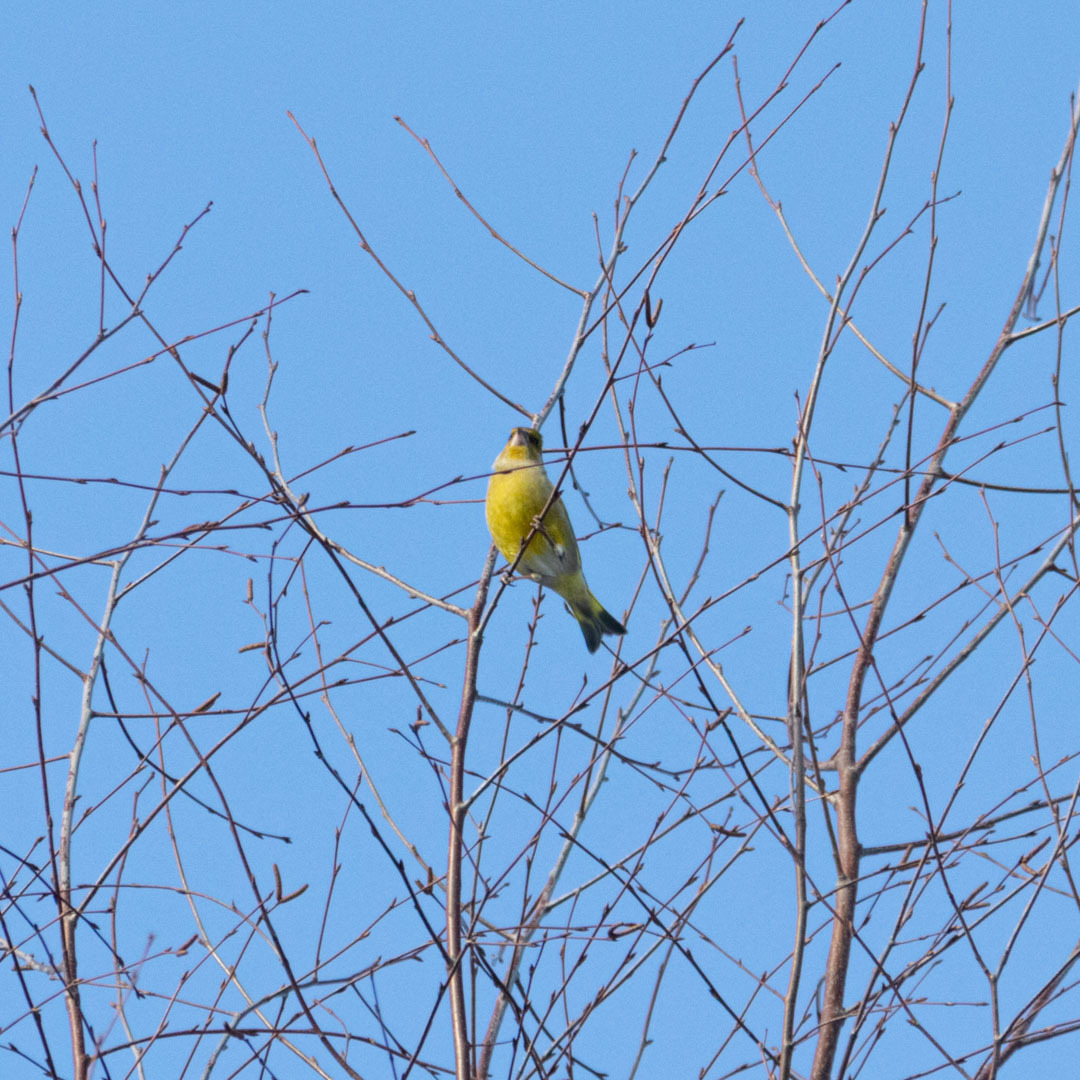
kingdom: Plantae
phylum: Tracheophyta
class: Liliopsida
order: Poales
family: Poaceae
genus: Chloris
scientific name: Chloris chloris
